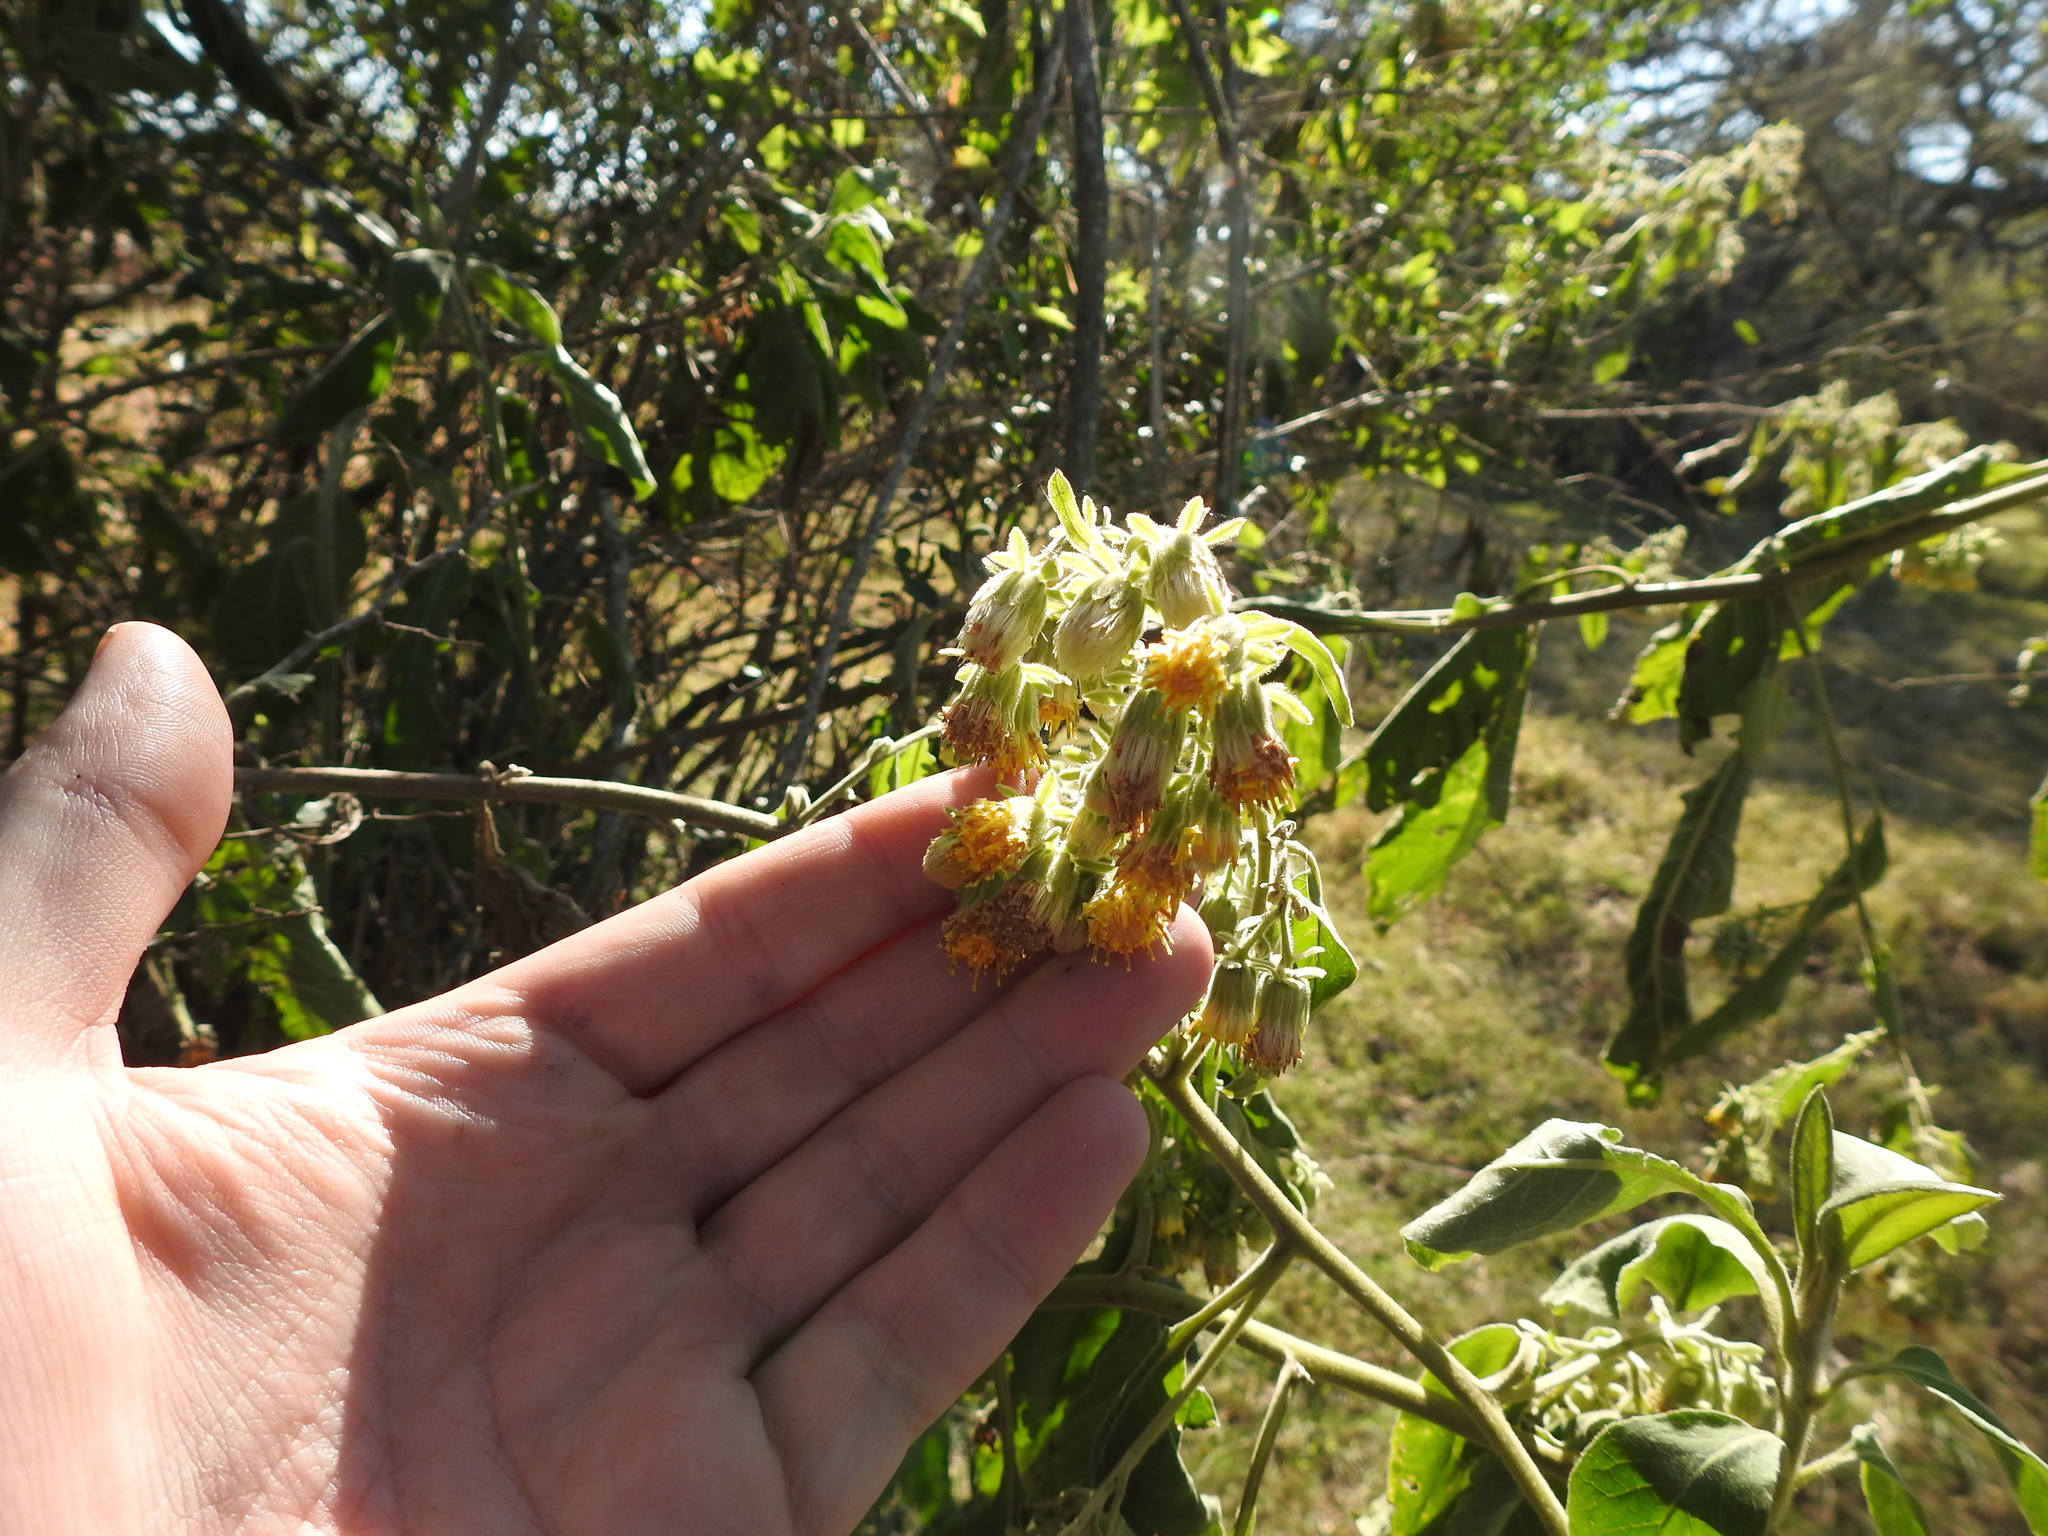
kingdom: Plantae
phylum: Tracheophyta
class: Magnoliopsida
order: Asterales
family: Asteraceae
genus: Trixis
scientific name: Trixis praestans
